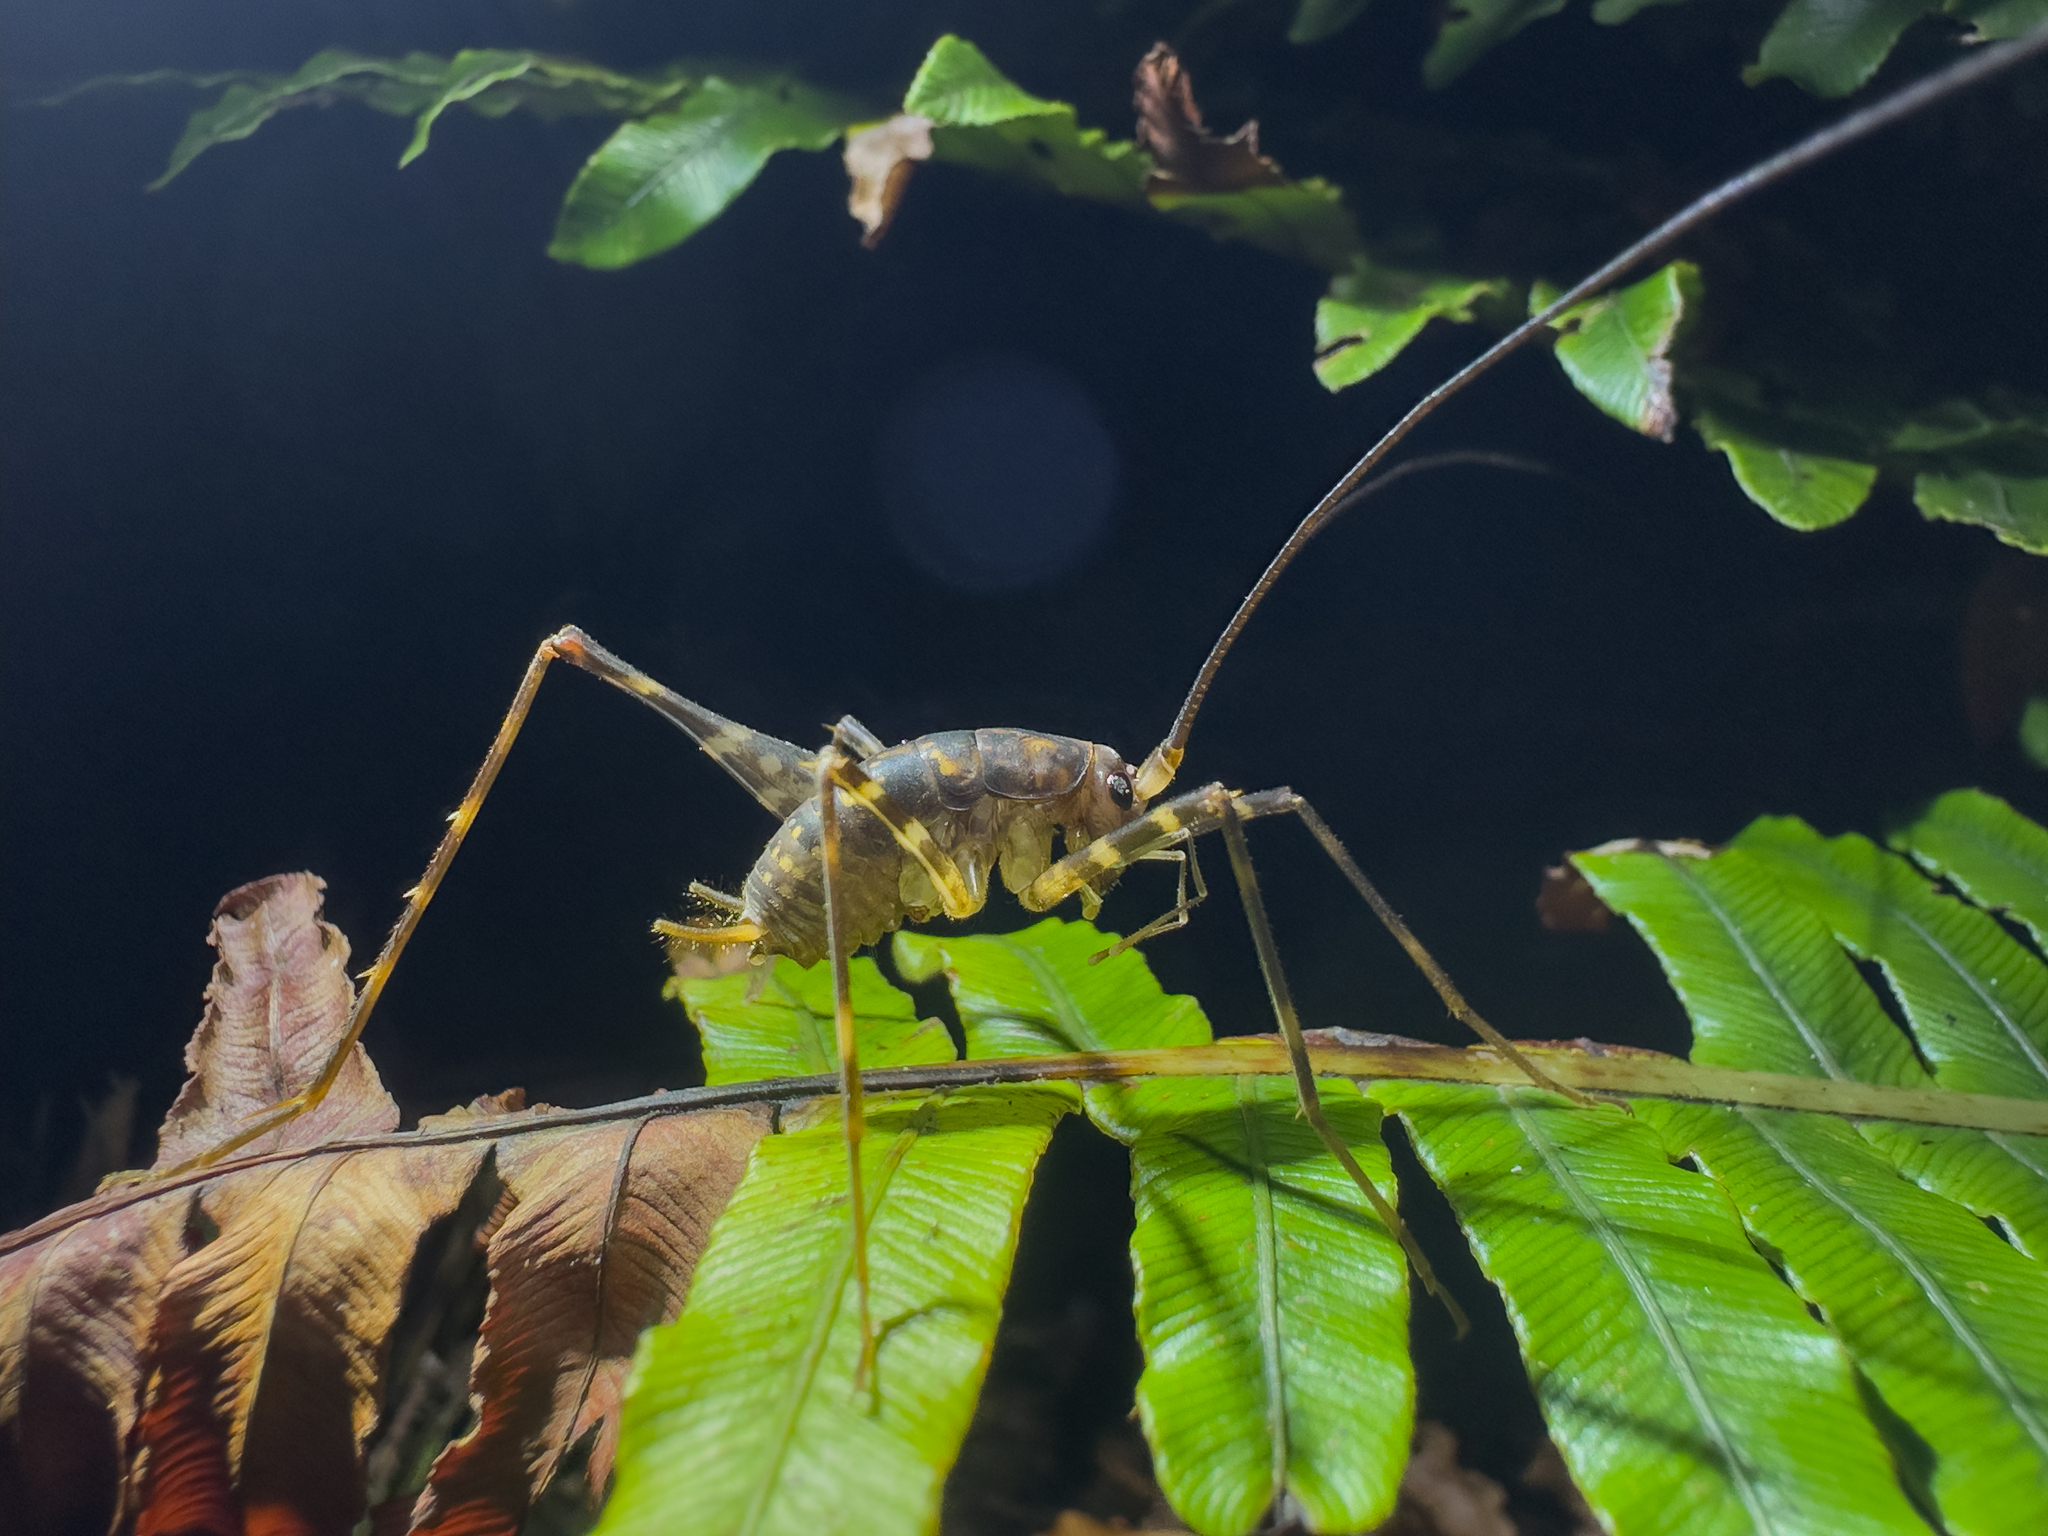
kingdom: Animalia
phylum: Arthropoda
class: Insecta
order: Orthoptera
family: Rhaphidophoridae
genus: Miotopus
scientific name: Miotopus richardsae
